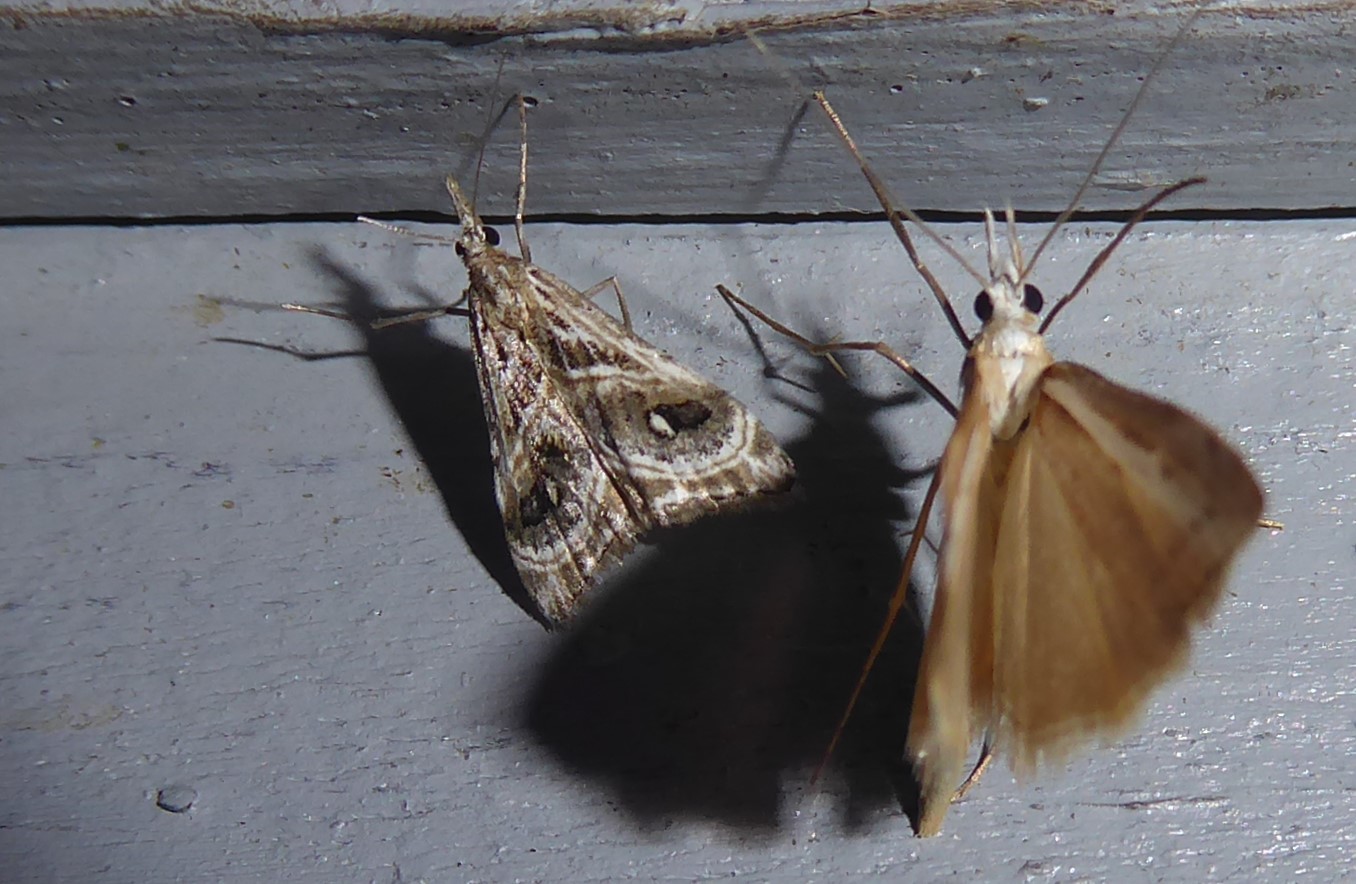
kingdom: Animalia
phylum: Arthropoda
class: Insecta
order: Lepidoptera
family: Crambidae
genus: Gadira
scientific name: Gadira acerella
